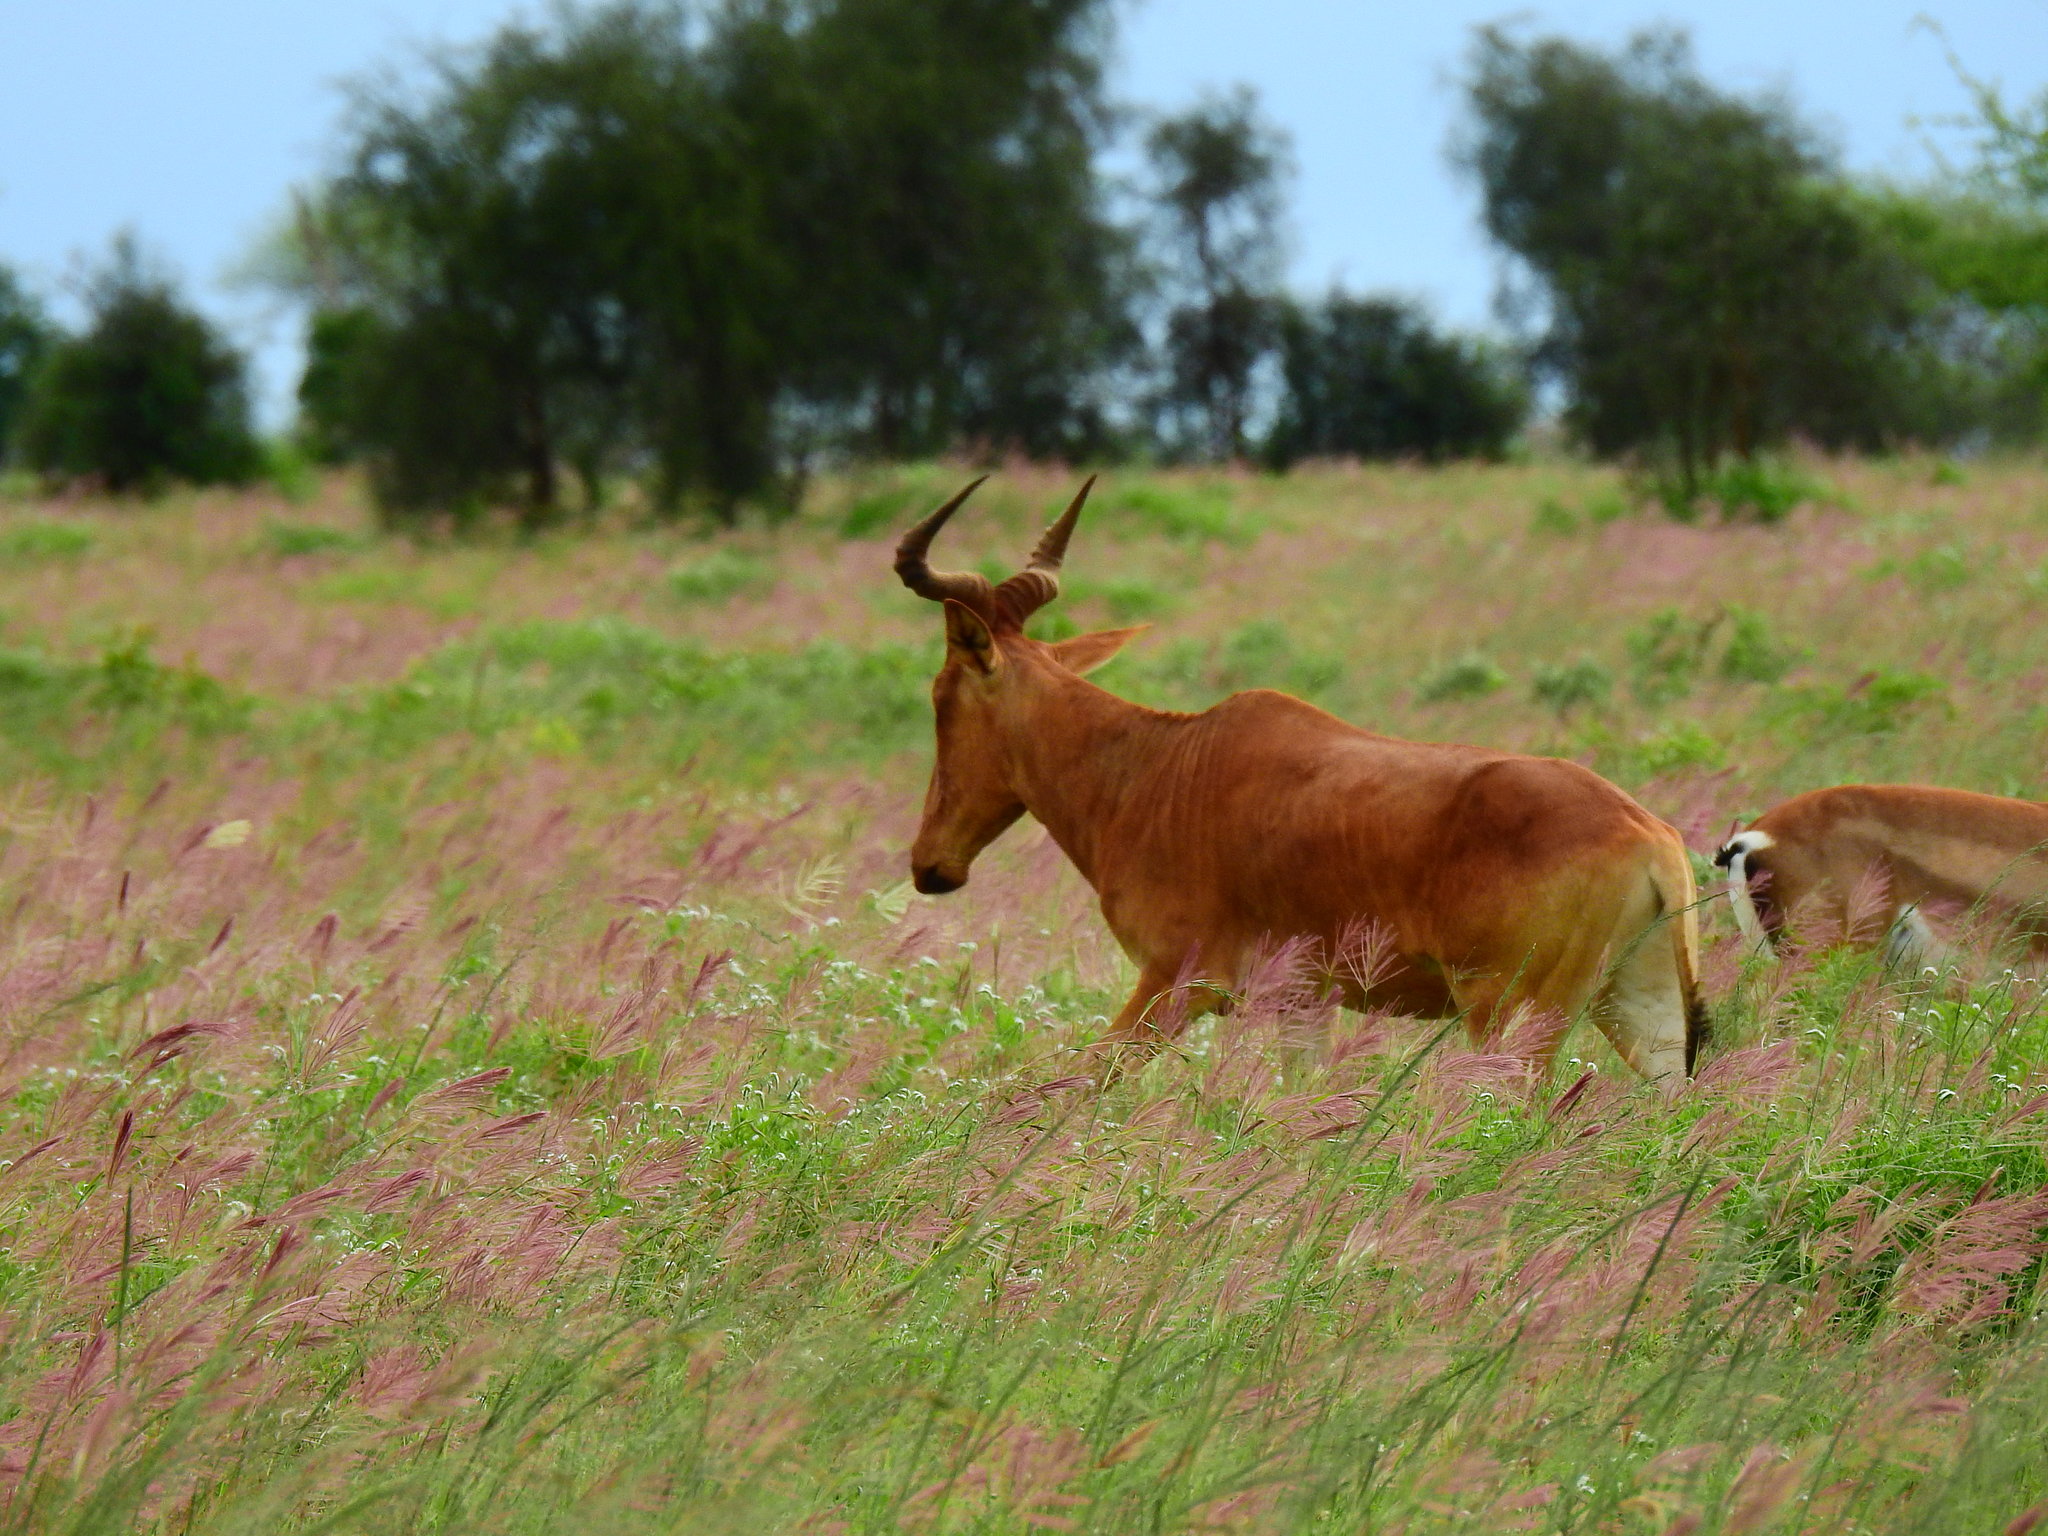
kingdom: Animalia
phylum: Chordata
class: Mammalia
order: Artiodactyla
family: Bovidae
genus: Alcelaphus
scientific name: Alcelaphus buselaphus
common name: Hartebeest
